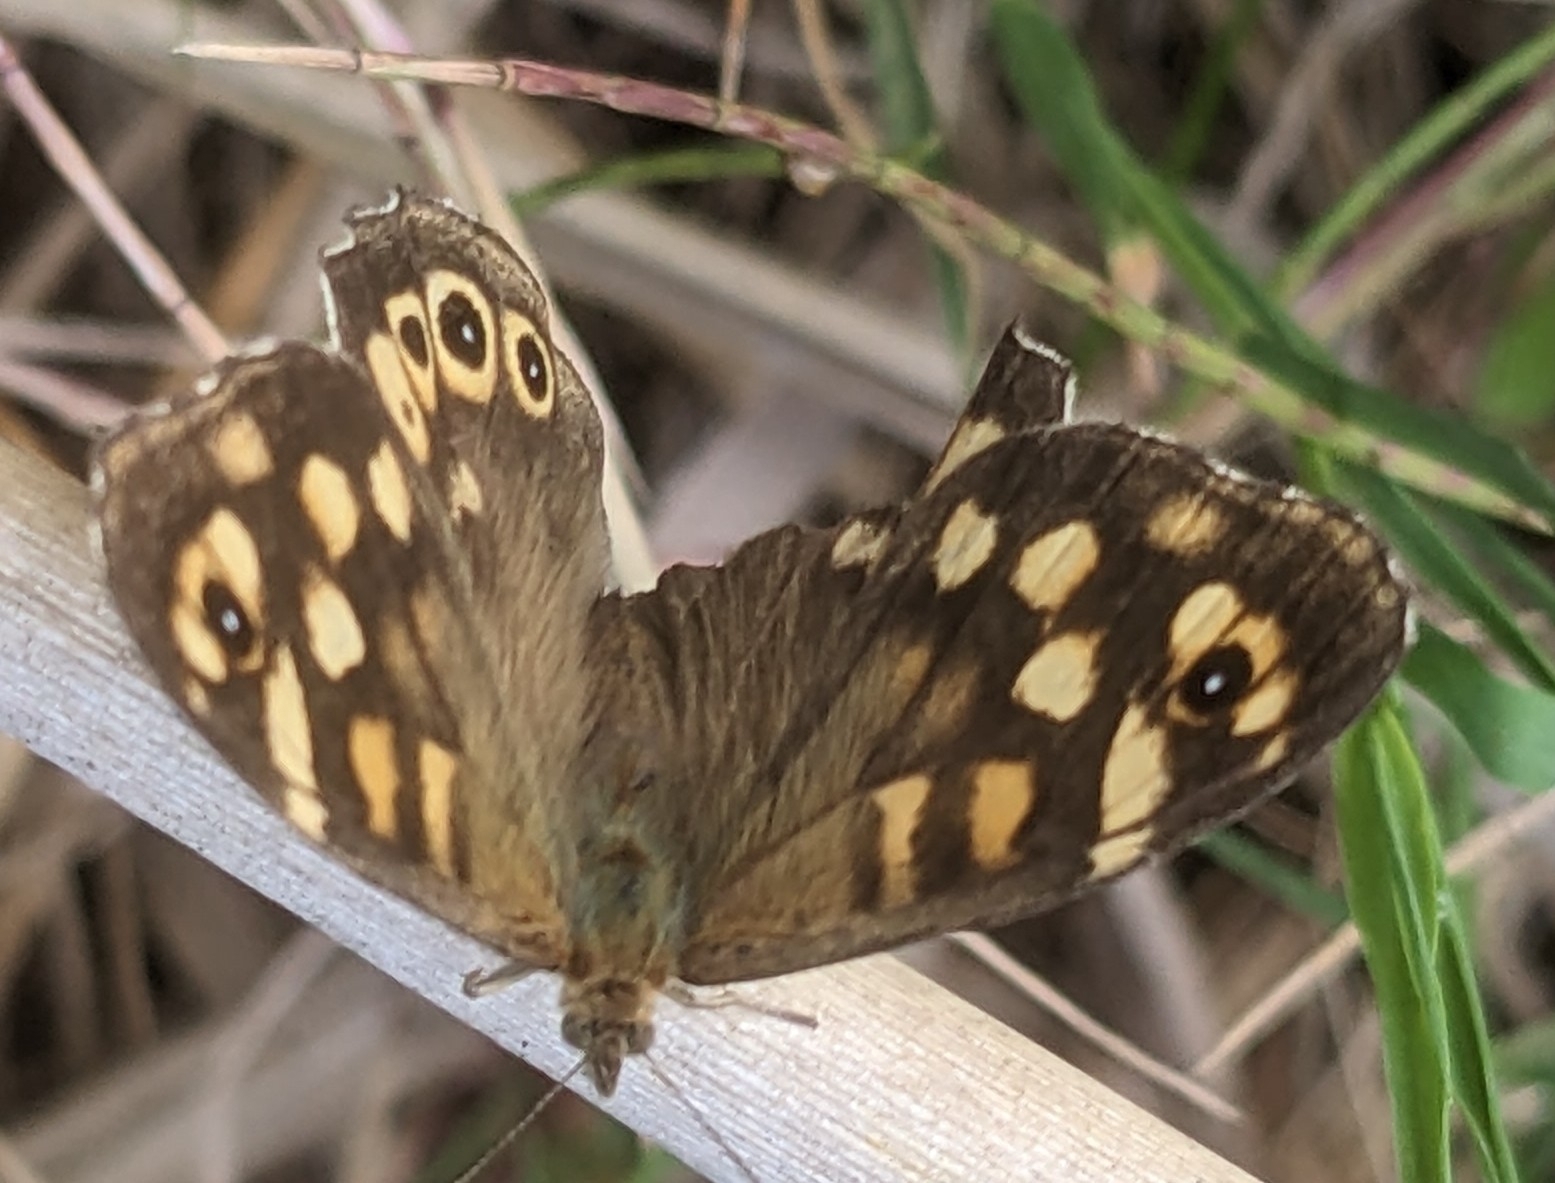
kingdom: Animalia
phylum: Arthropoda
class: Insecta
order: Lepidoptera
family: Nymphalidae
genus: Pararge
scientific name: Pararge aegeria
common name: Speckled wood
